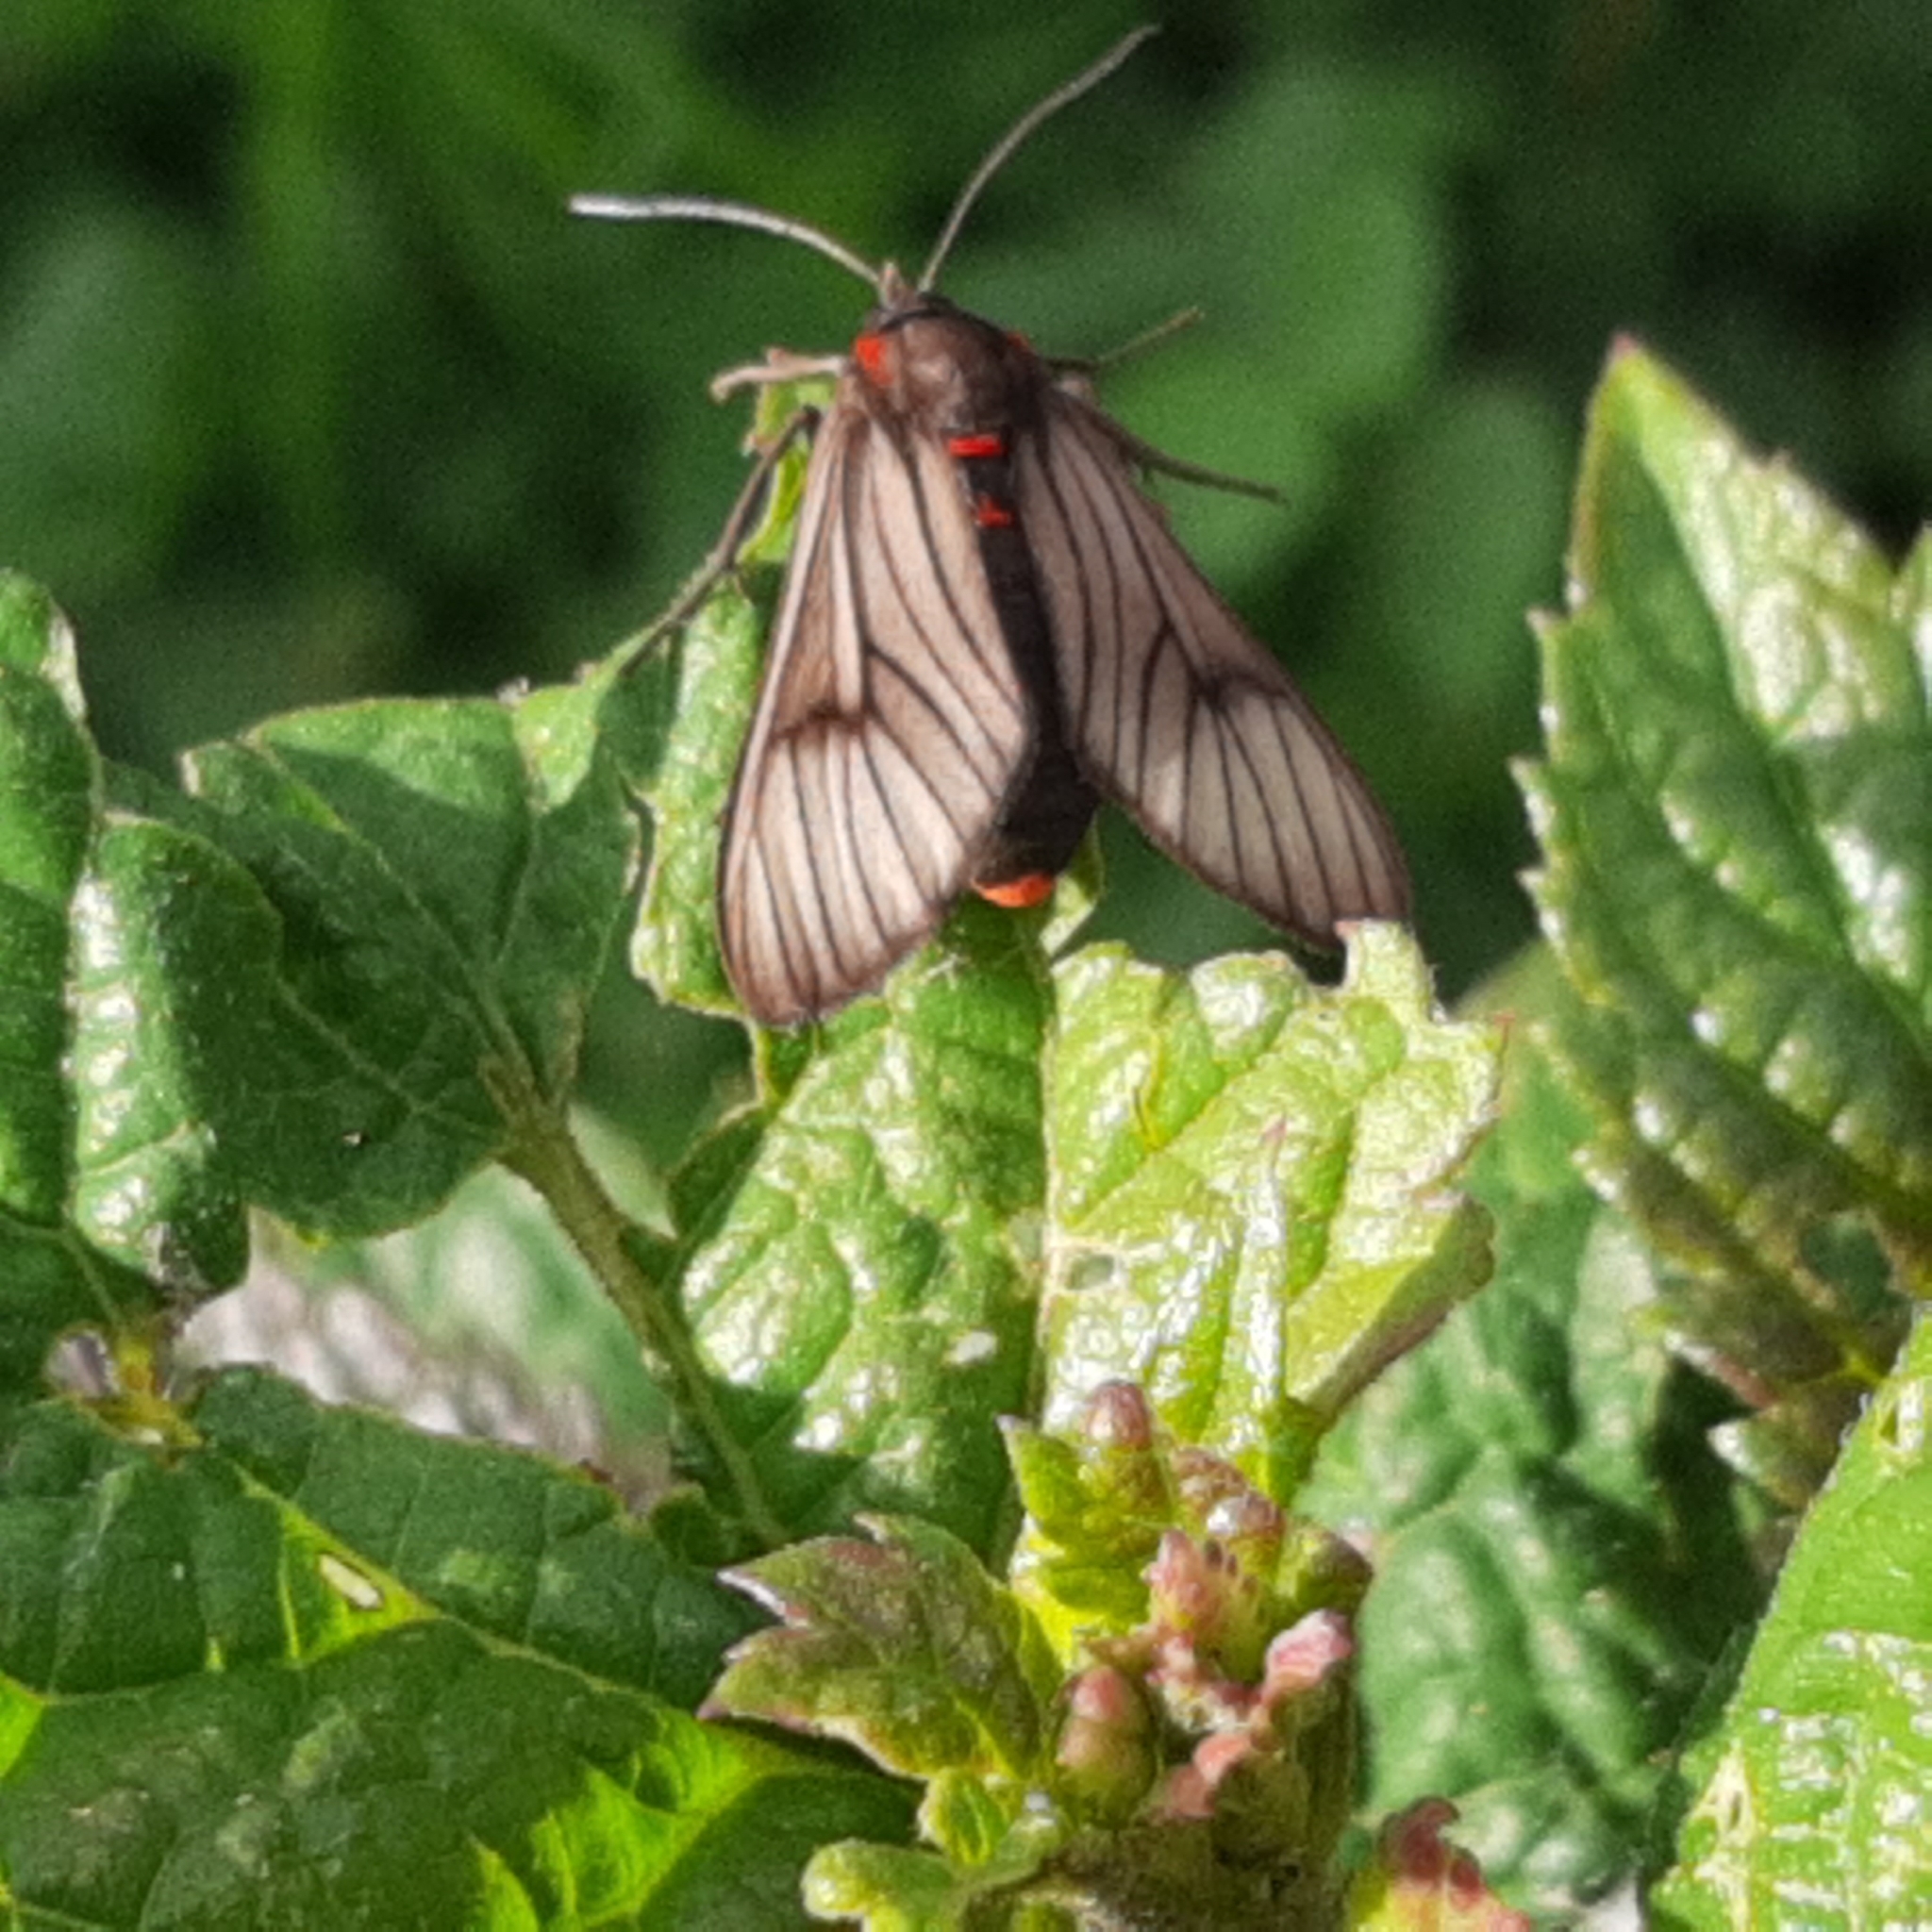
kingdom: Animalia
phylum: Arthropoda
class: Insecta
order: Lepidoptera
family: Erebidae
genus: Saurita
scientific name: Saurita nigripalpia
